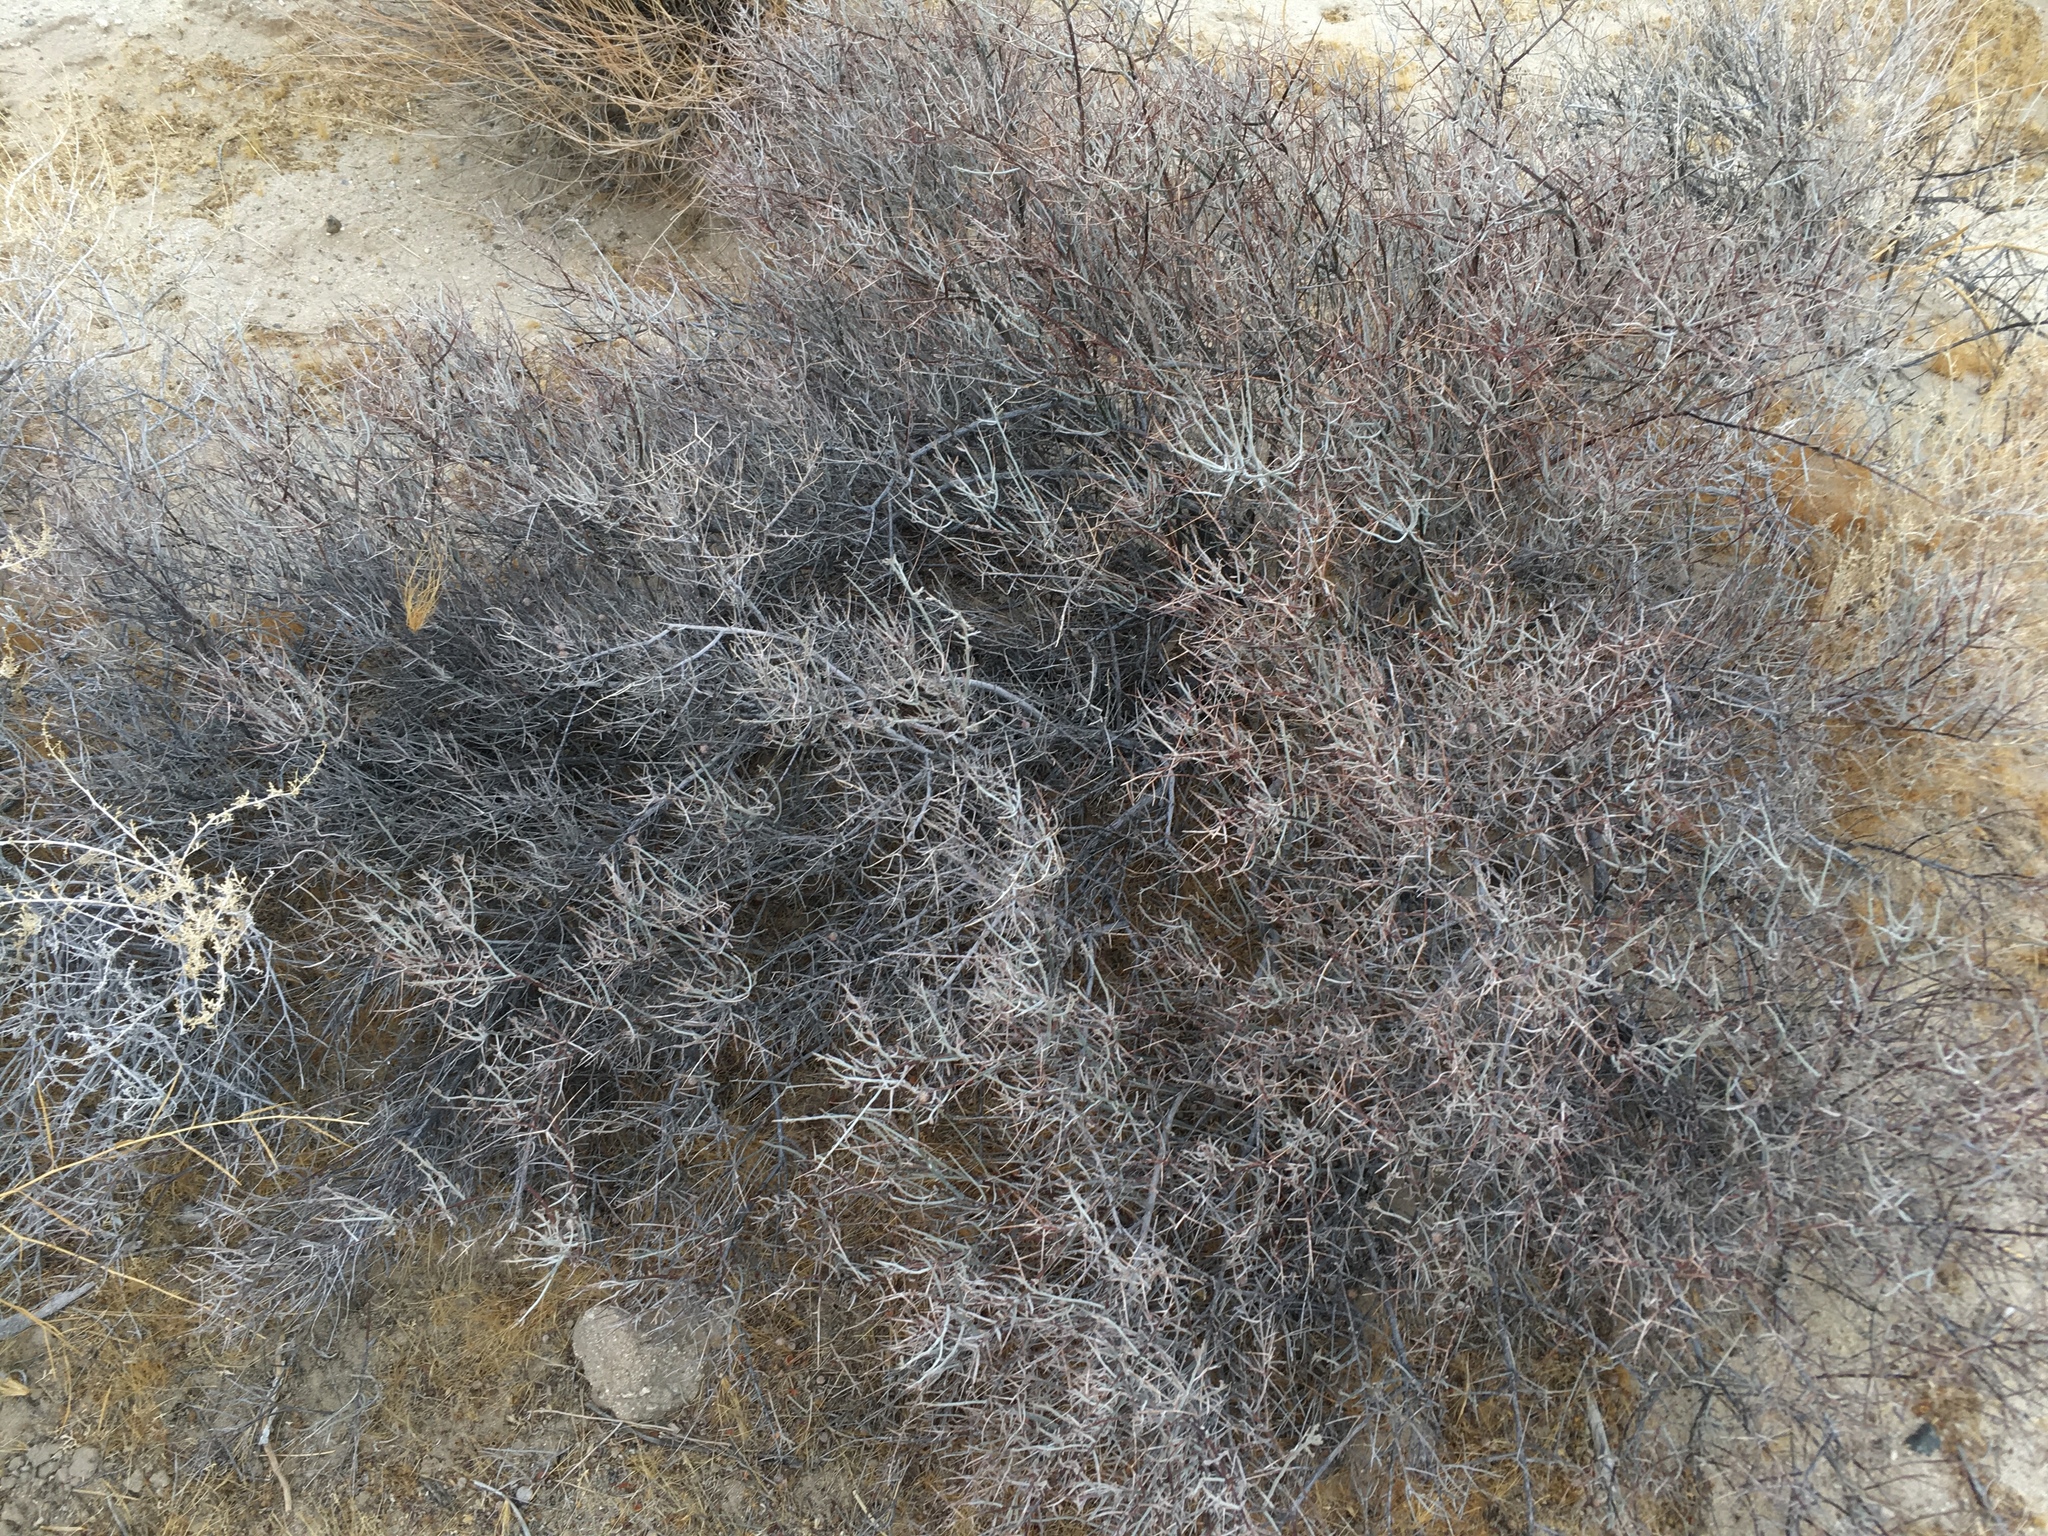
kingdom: Plantae
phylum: Tracheophyta
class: Magnoliopsida
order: Zygophyllales
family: Krameriaceae
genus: Krameria
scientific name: Krameria bicolor
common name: White ratany
